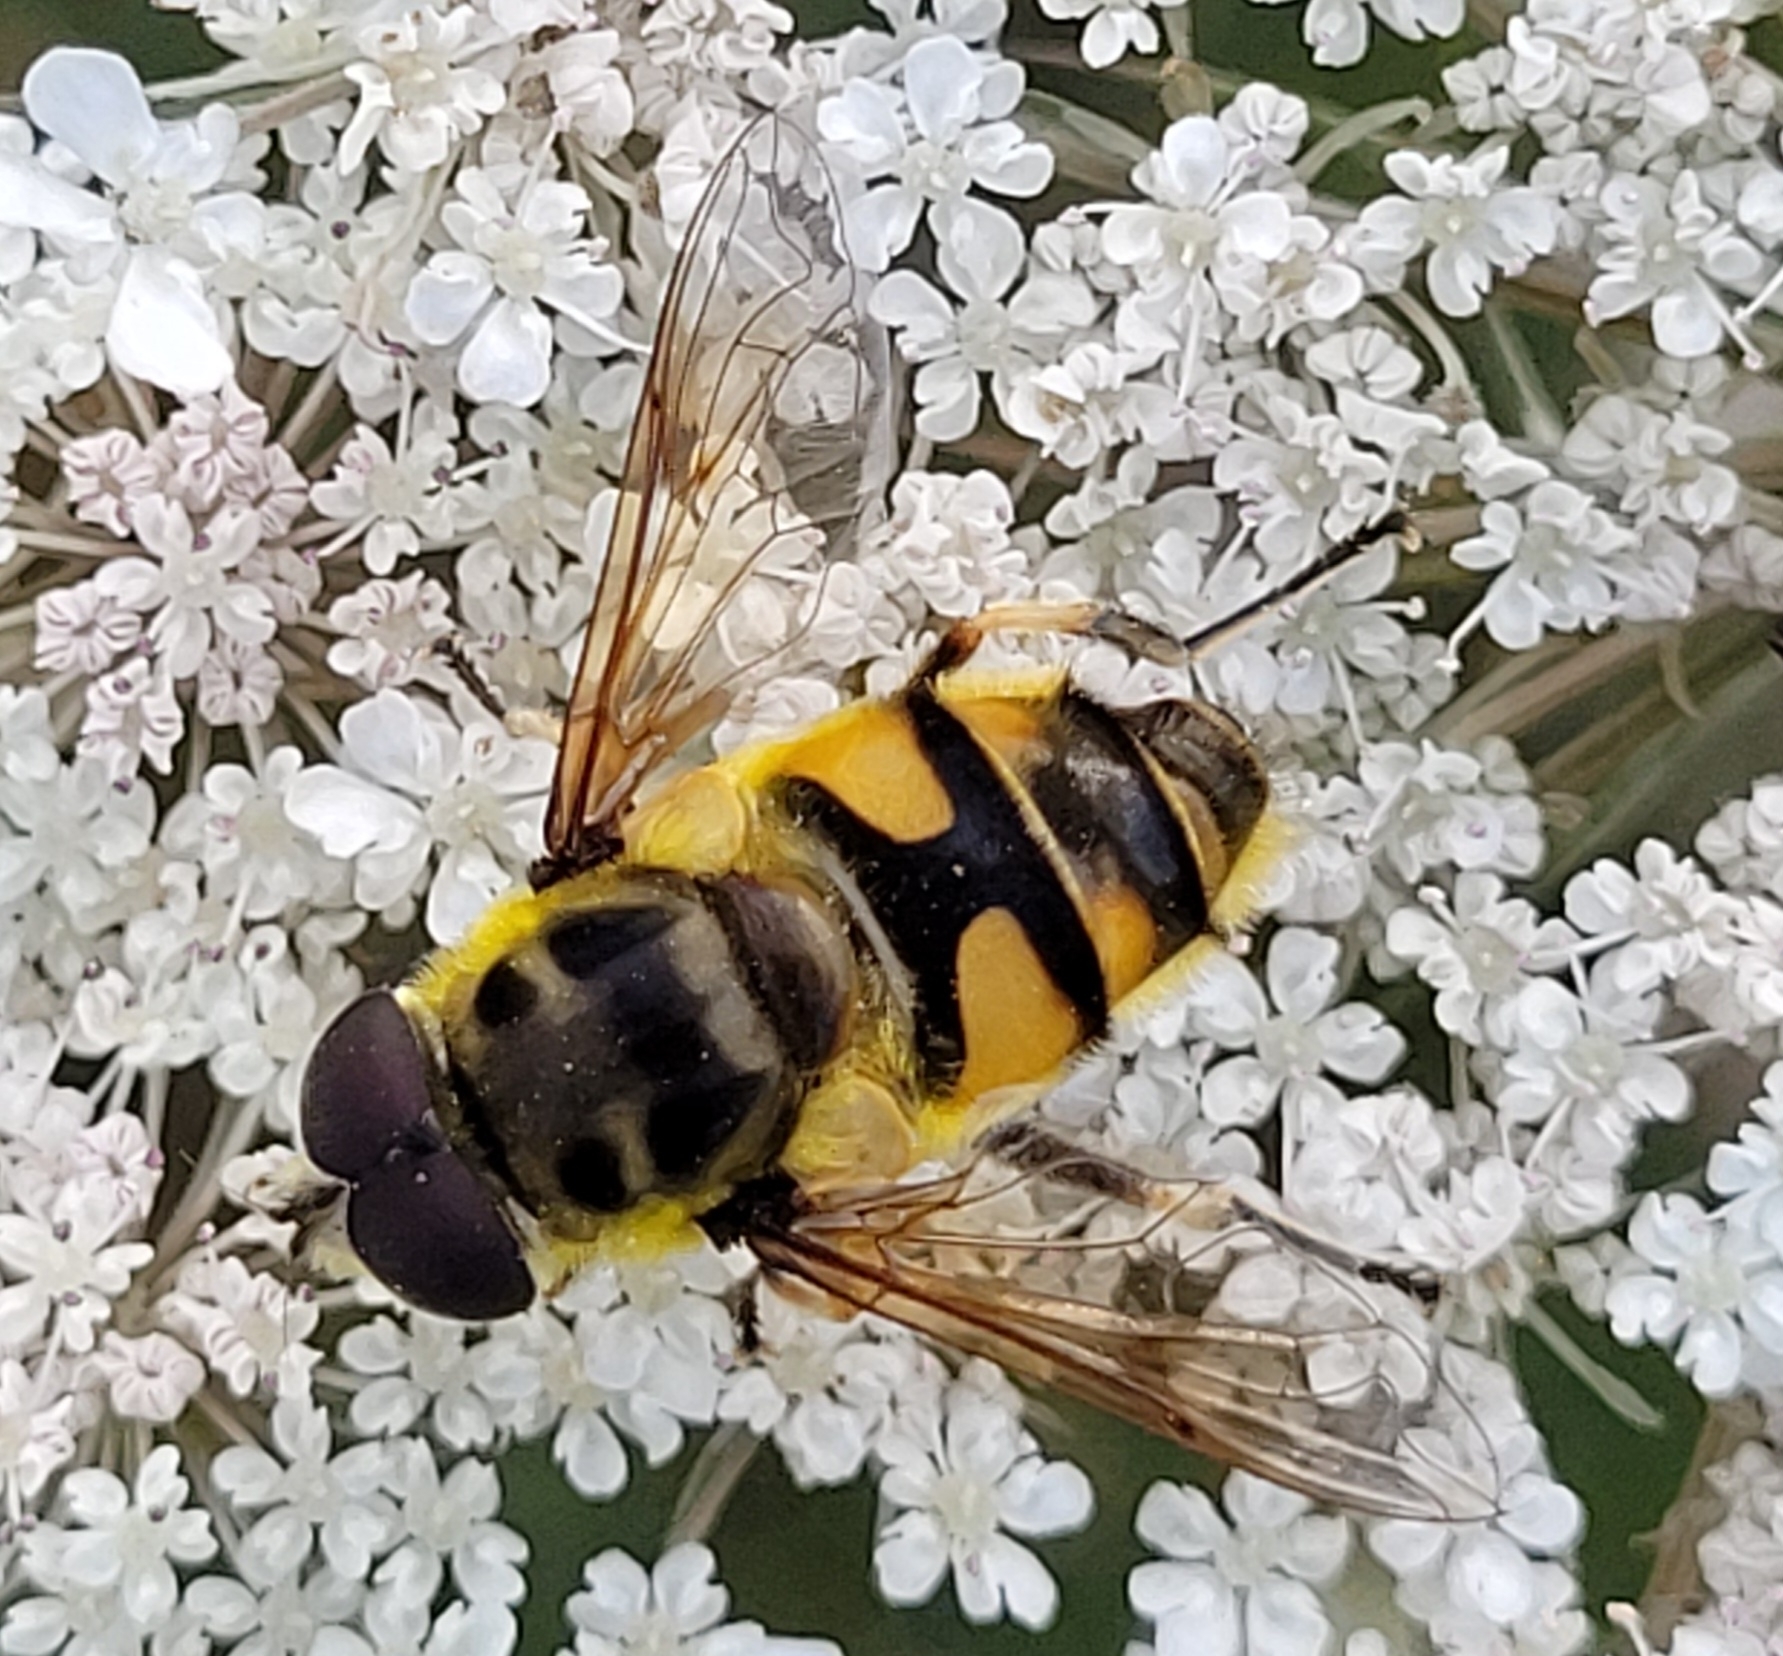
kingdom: Animalia
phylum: Arthropoda
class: Insecta
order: Diptera
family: Syrphidae
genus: Myathropa
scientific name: Myathropa florea
